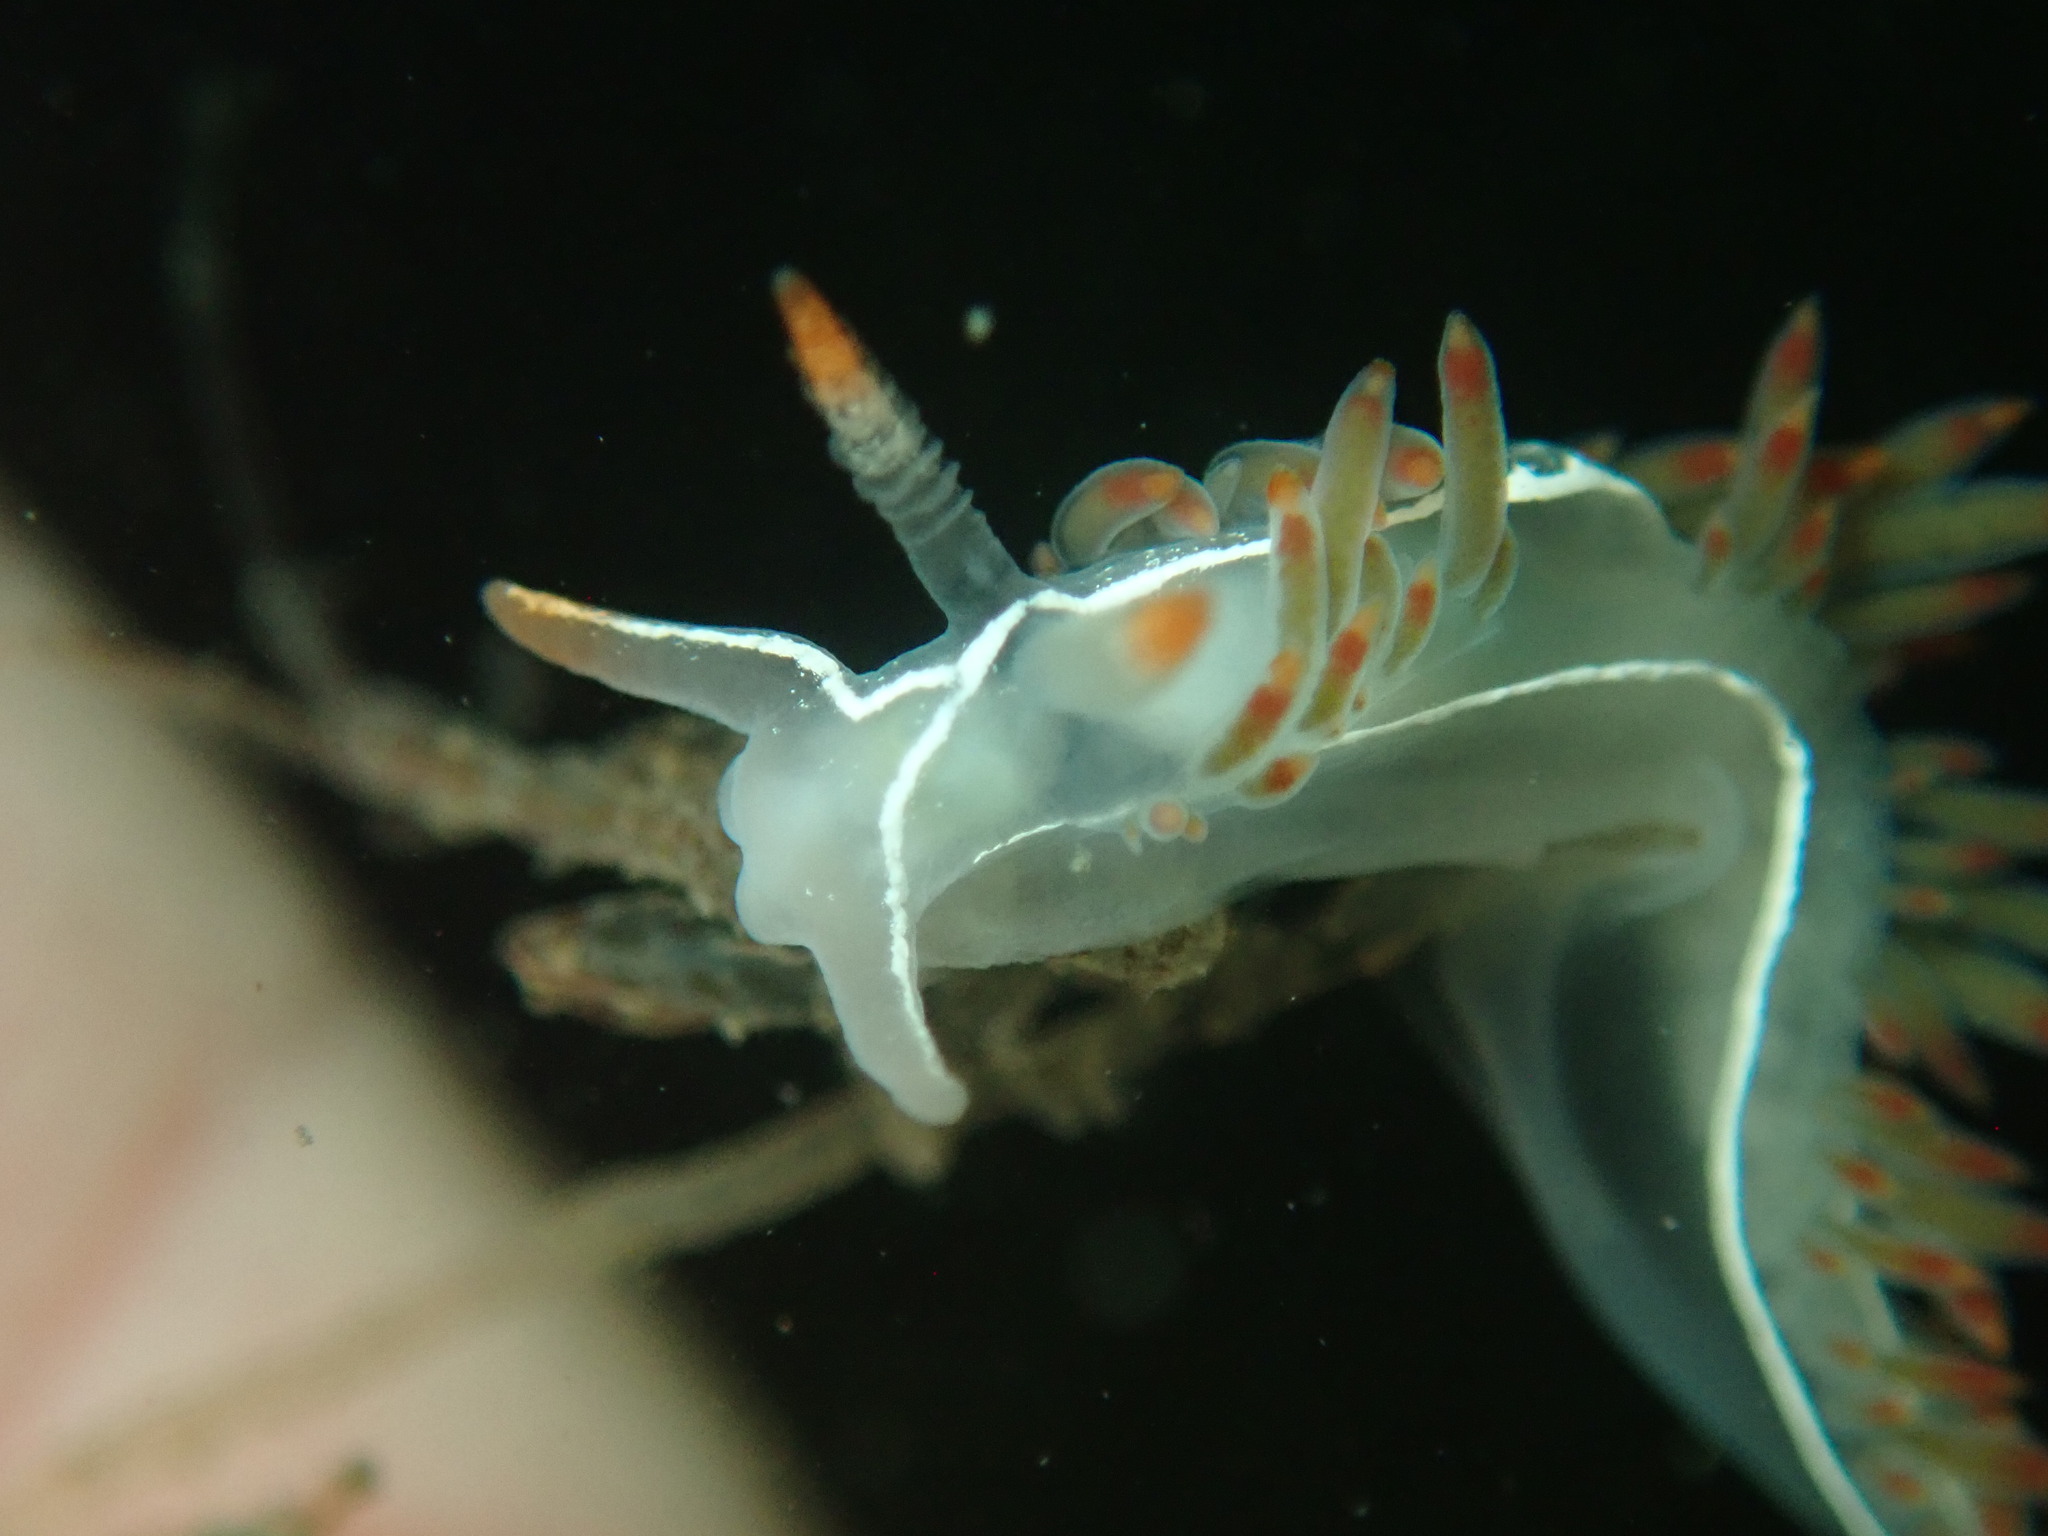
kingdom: Animalia
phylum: Mollusca
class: Gastropoda
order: Nudibranchia
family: Coryphellidae
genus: Coryphella
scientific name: Coryphella trilineata
